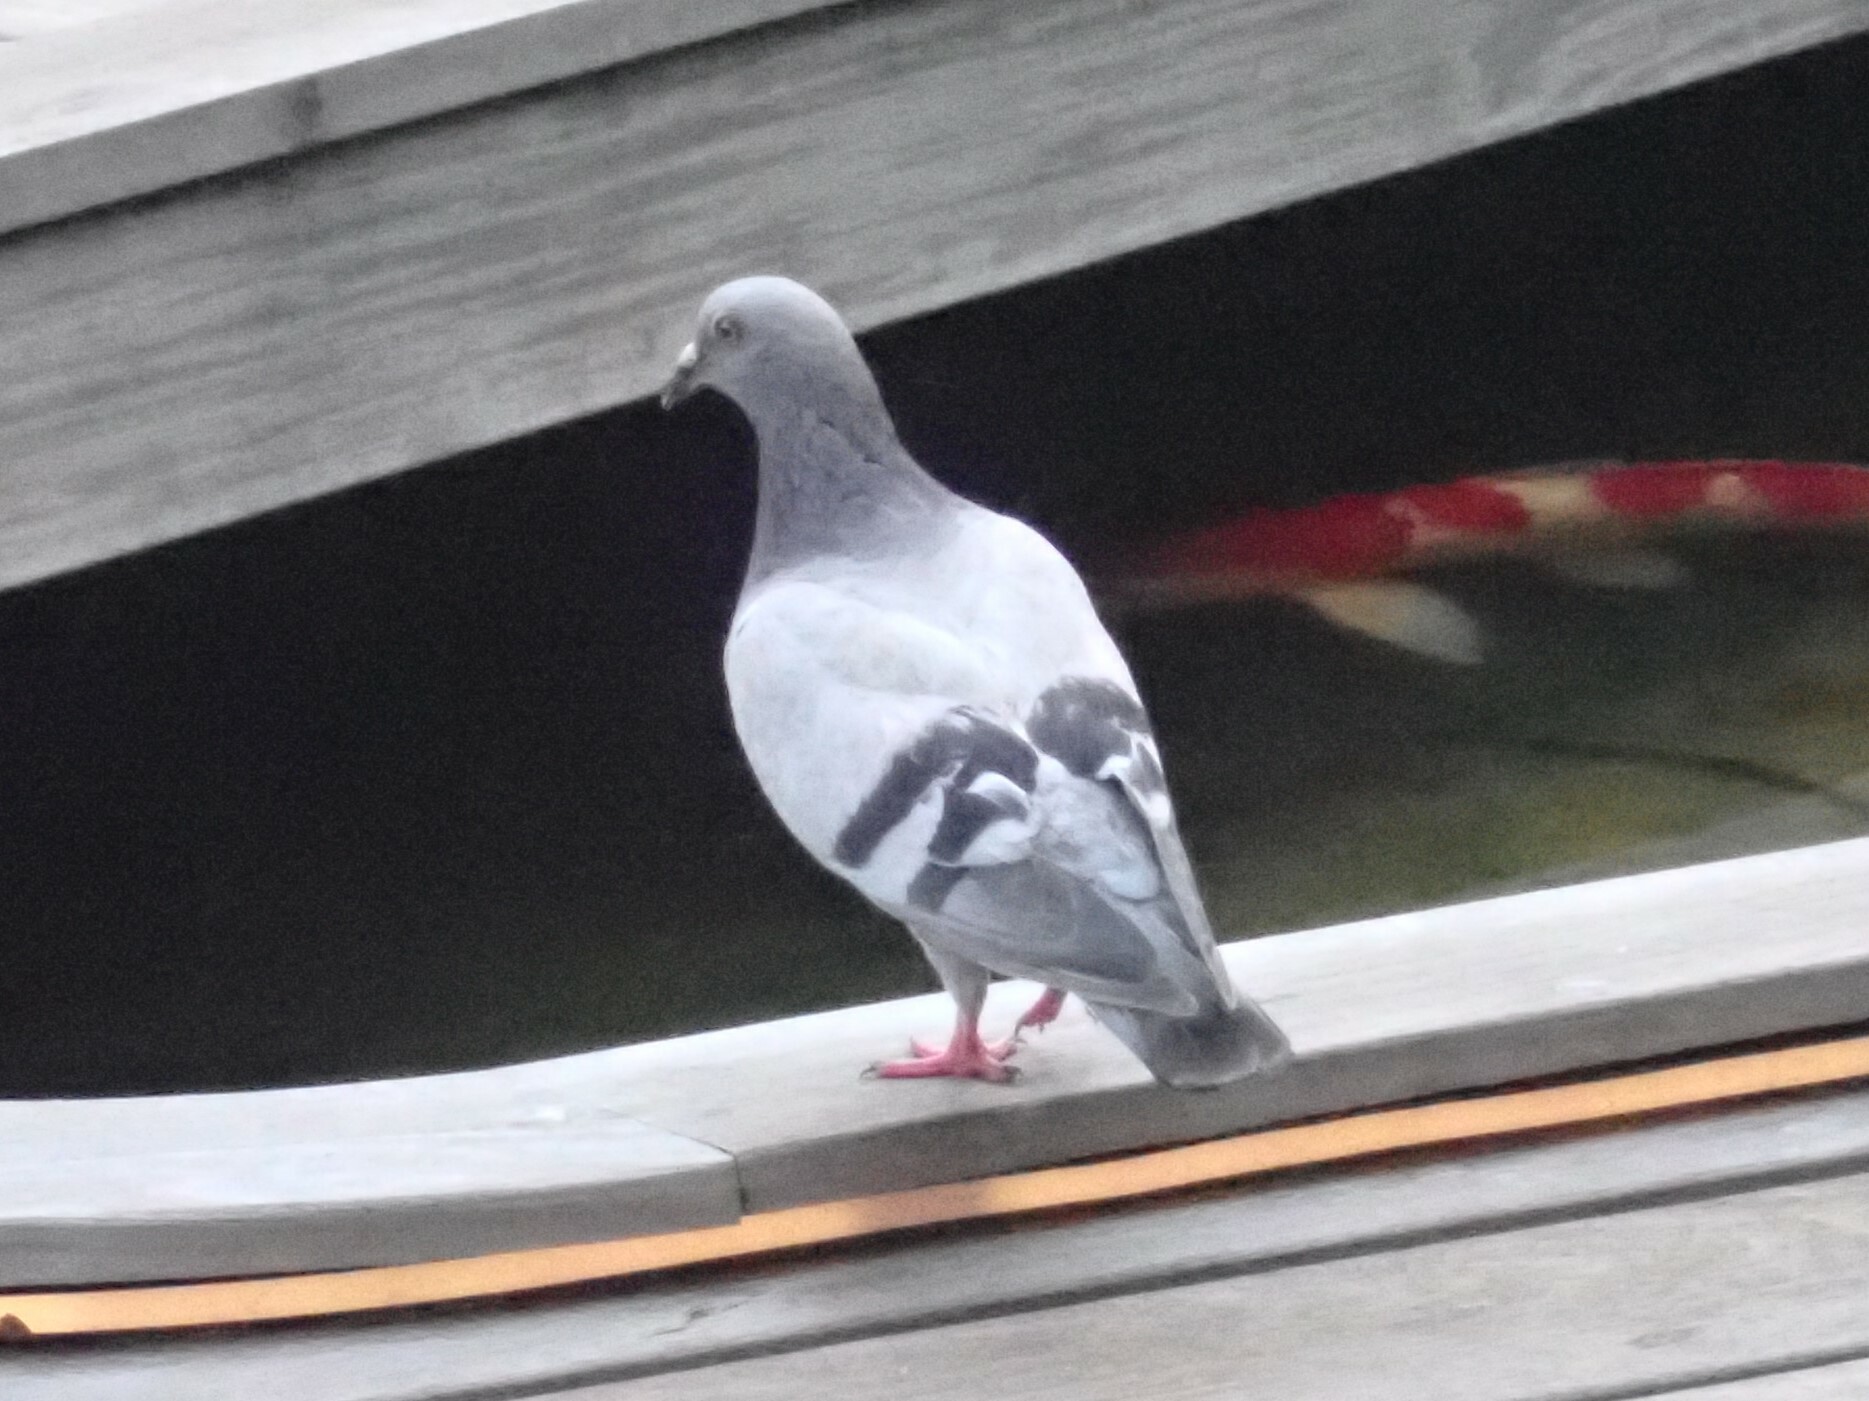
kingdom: Animalia
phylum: Chordata
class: Aves
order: Columbiformes
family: Columbidae
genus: Columba
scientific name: Columba livia
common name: Rock pigeon
